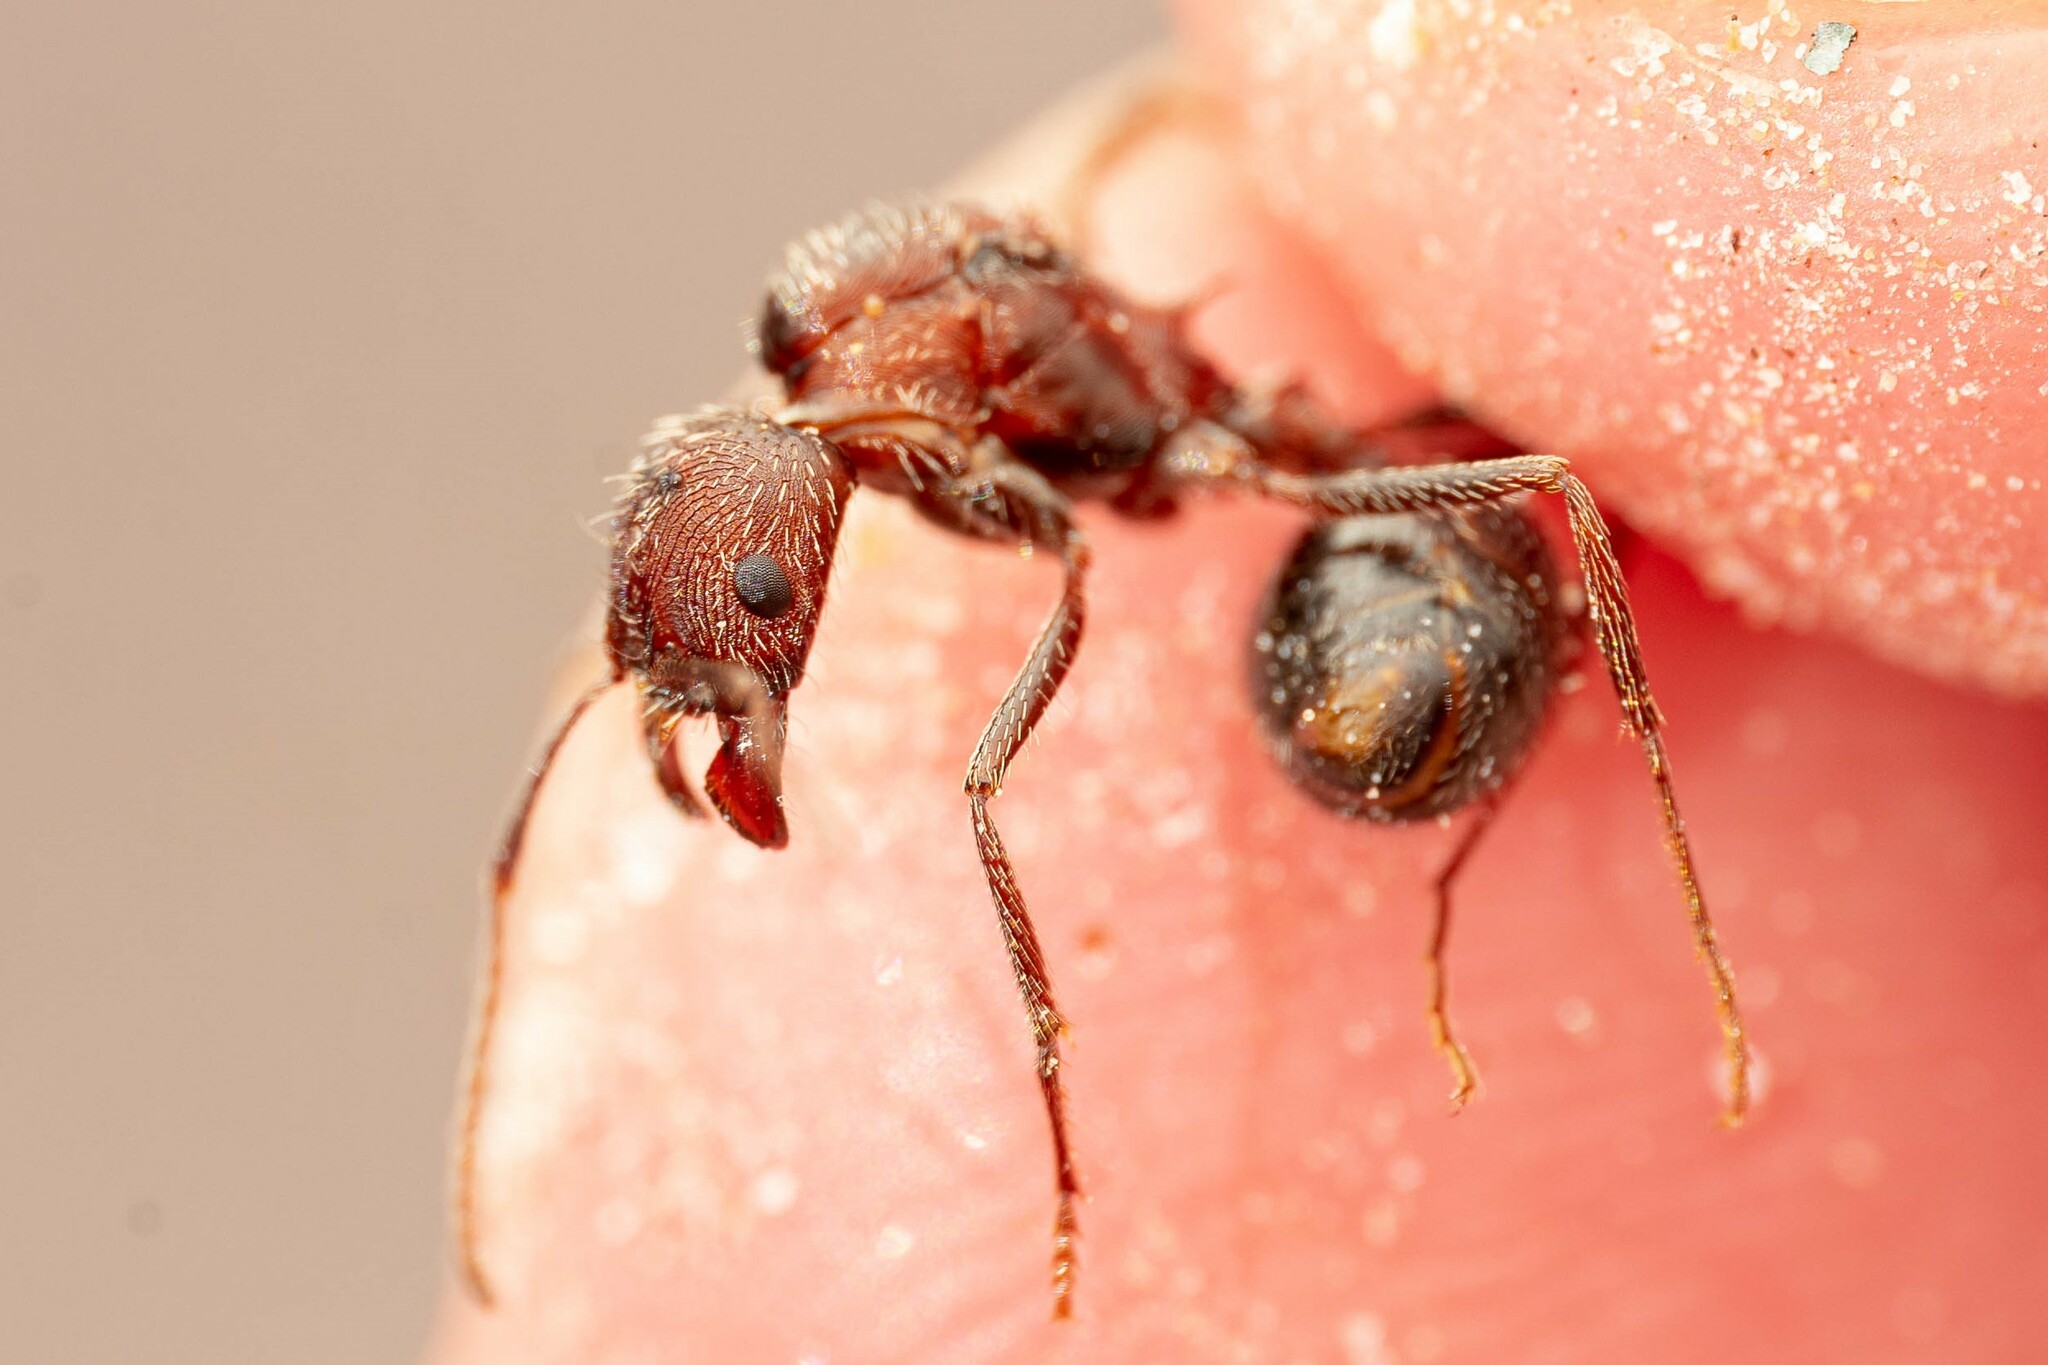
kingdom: Animalia
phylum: Arthropoda
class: Insecta
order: Hymenoptera
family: Formicidae
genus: Novomessor
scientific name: Novomessor albisetosa
